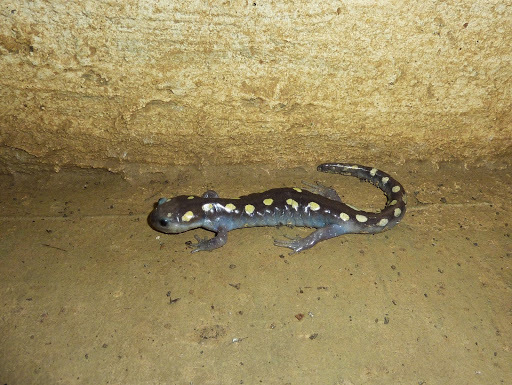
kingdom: Animalia
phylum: Chordata
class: Amphibia
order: Caudata
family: Ambystomatidae
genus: Ambystoma
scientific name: Ambystoma maculatum
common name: Spotted salamander
